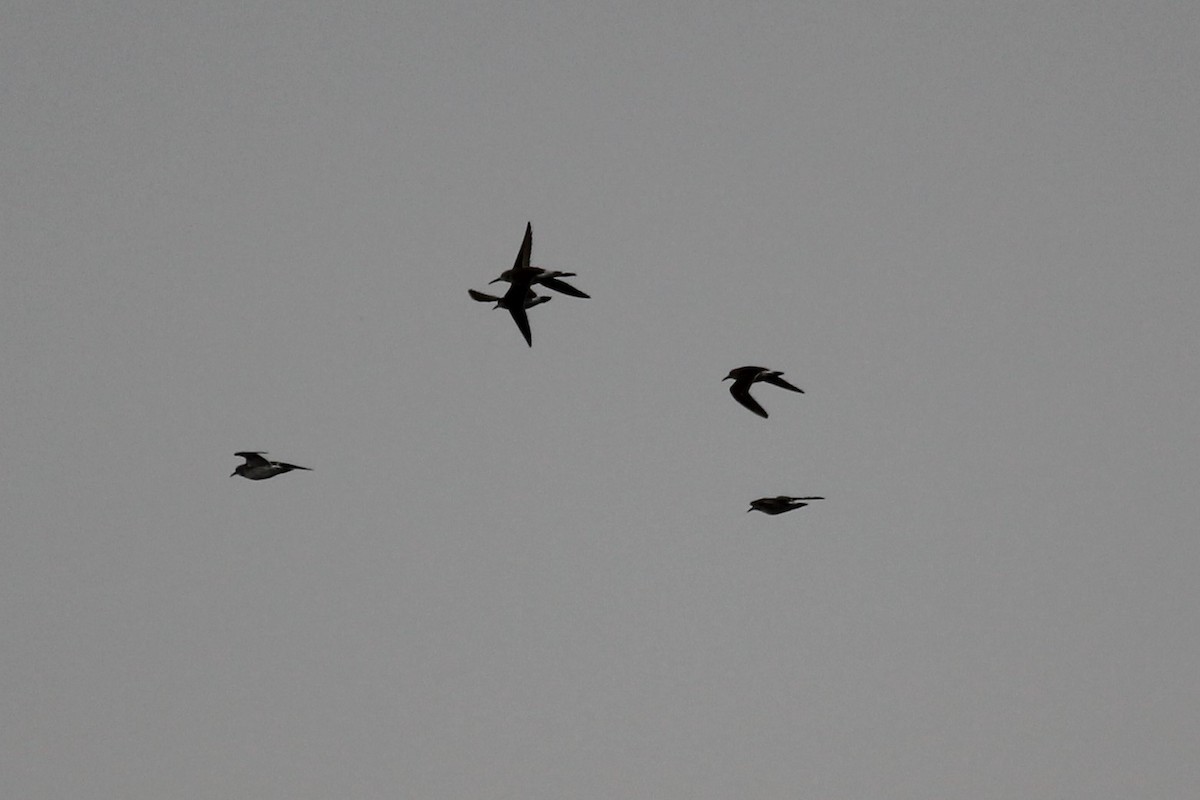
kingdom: Animalia
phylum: Chordata
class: Aves
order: Charadriiformes
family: Scolopacidae
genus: Calidris
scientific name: Calidris fuscicollis
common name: White-rumped sandpiper
